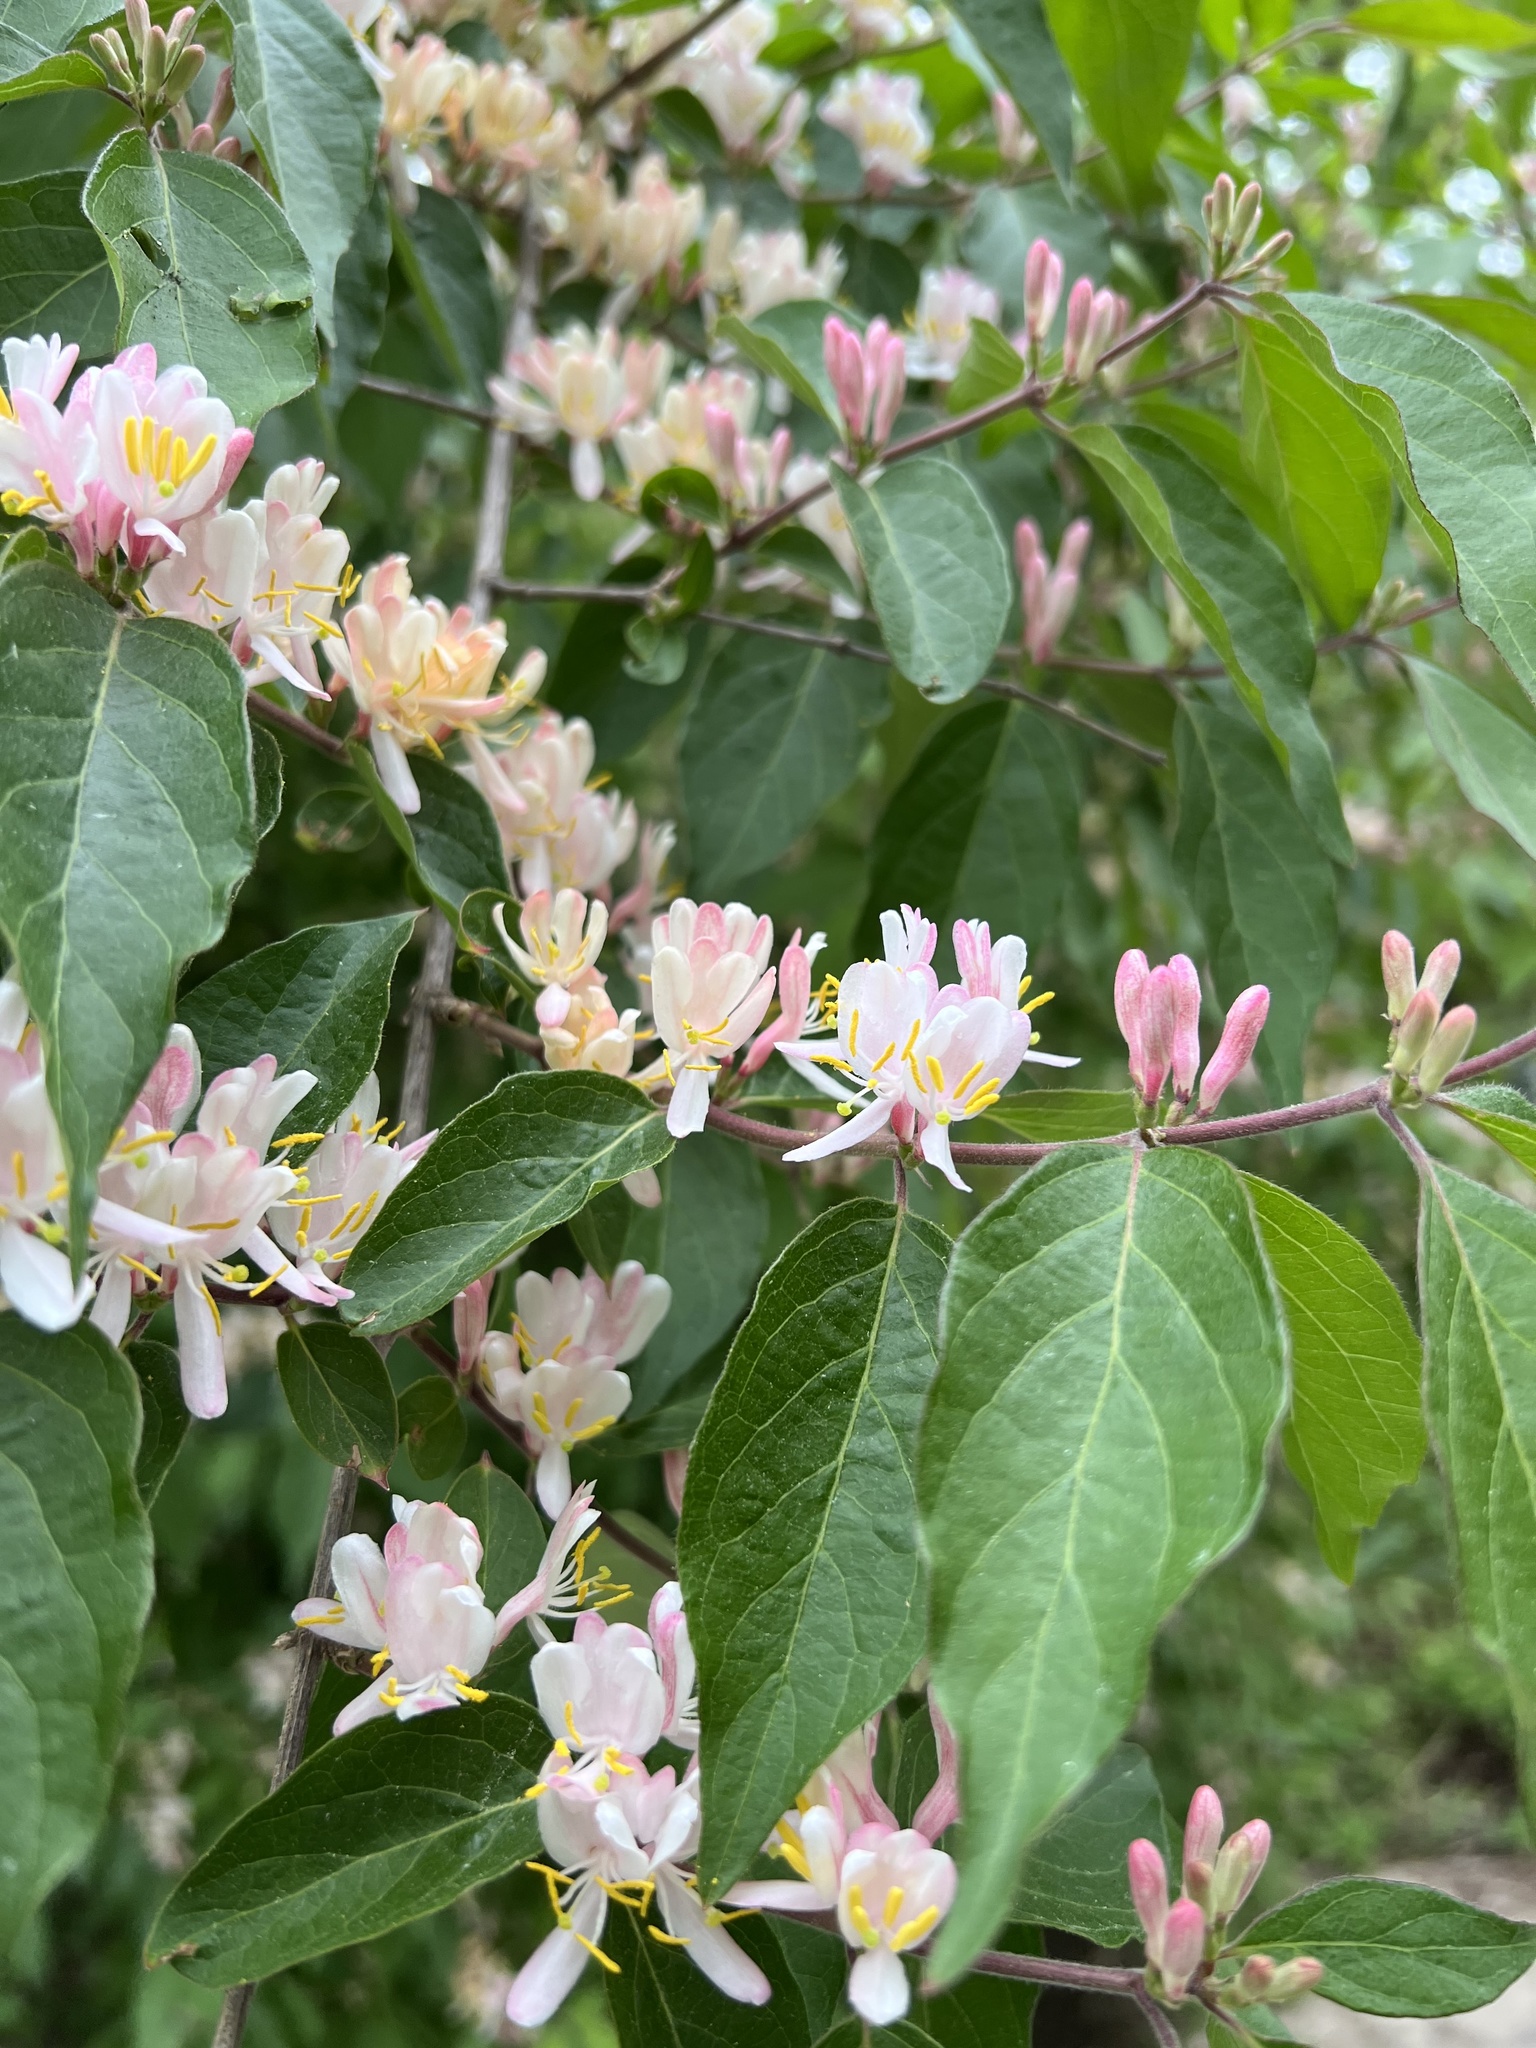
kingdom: Plantae
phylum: Tracheophyta
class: Magnoliopsida
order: Dipsacales
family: Caprifoliaceae
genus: Lonicera
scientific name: Lonicera maackii
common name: Amur honeysuckle
